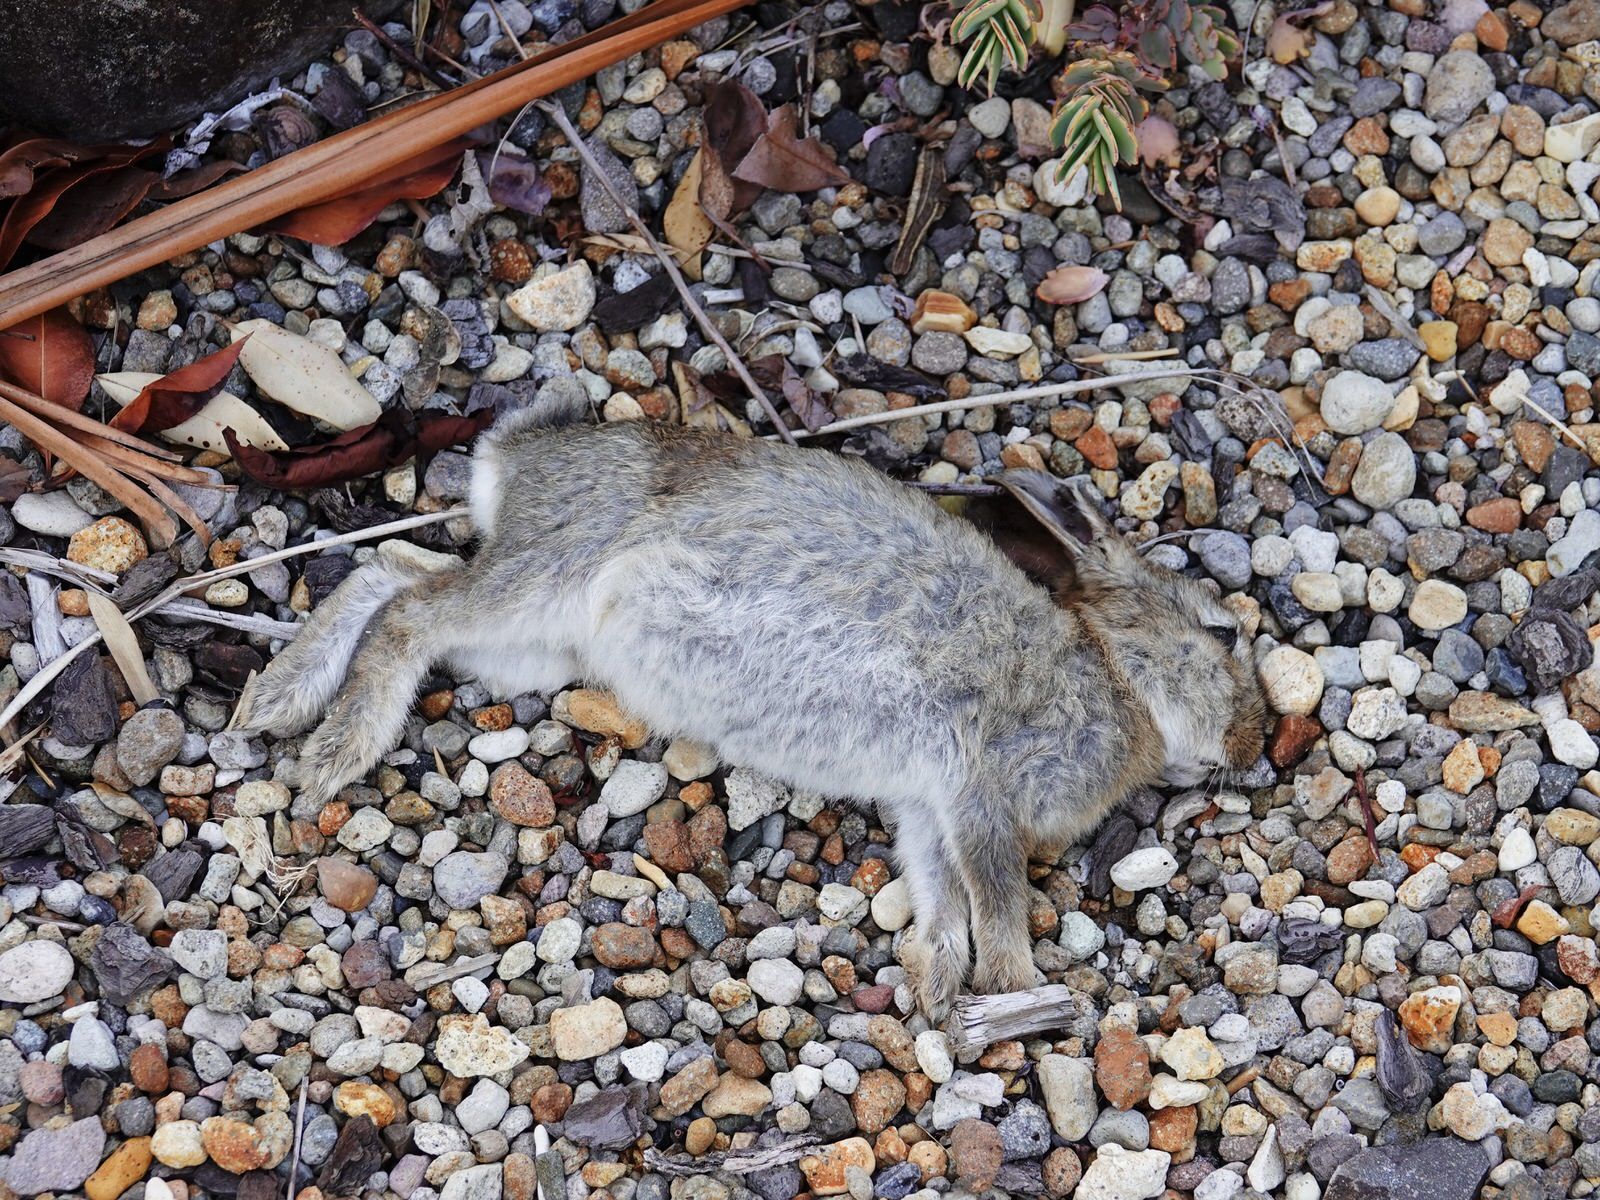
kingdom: Animalia
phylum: Chordata
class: Mammalia
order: Lagomorpha
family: Leporidae
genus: Oryctolagus
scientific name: Oryctolagus cuniculus
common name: European rabbit
